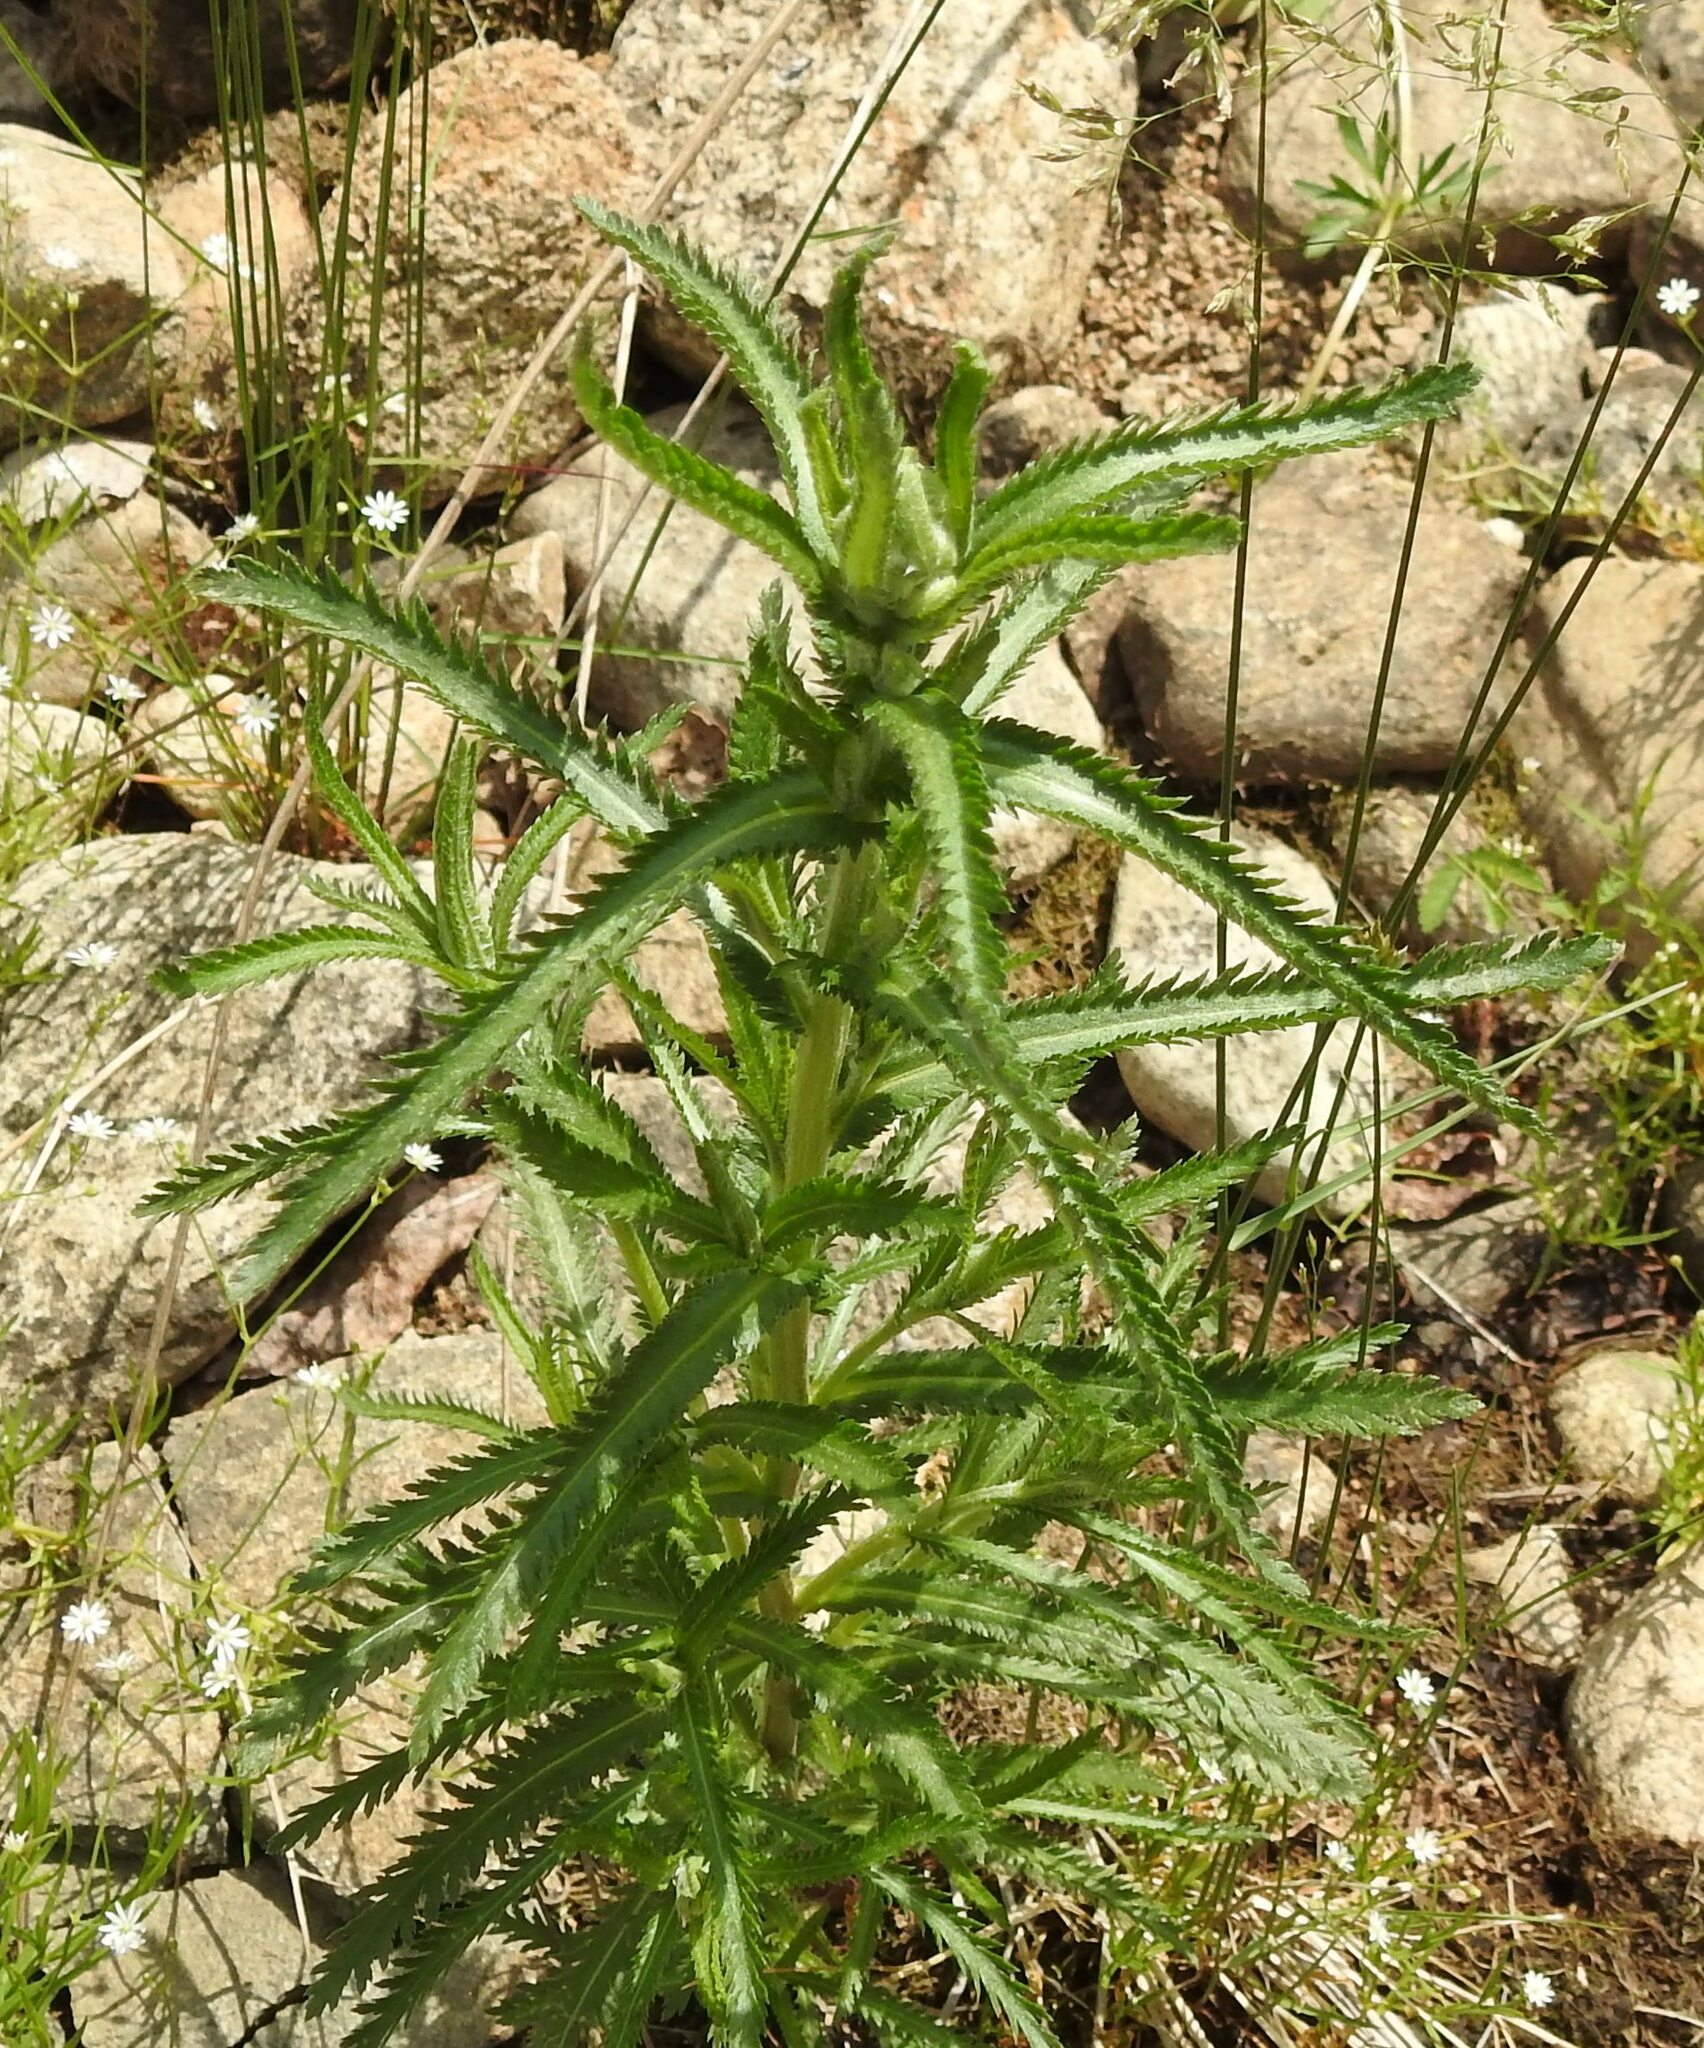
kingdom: Plantae
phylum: Tracheophyta
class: Magnoliopsida
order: Asterales
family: Asteraceae
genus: Achillea
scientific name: Achillea alpina
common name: Siberian yarrow
